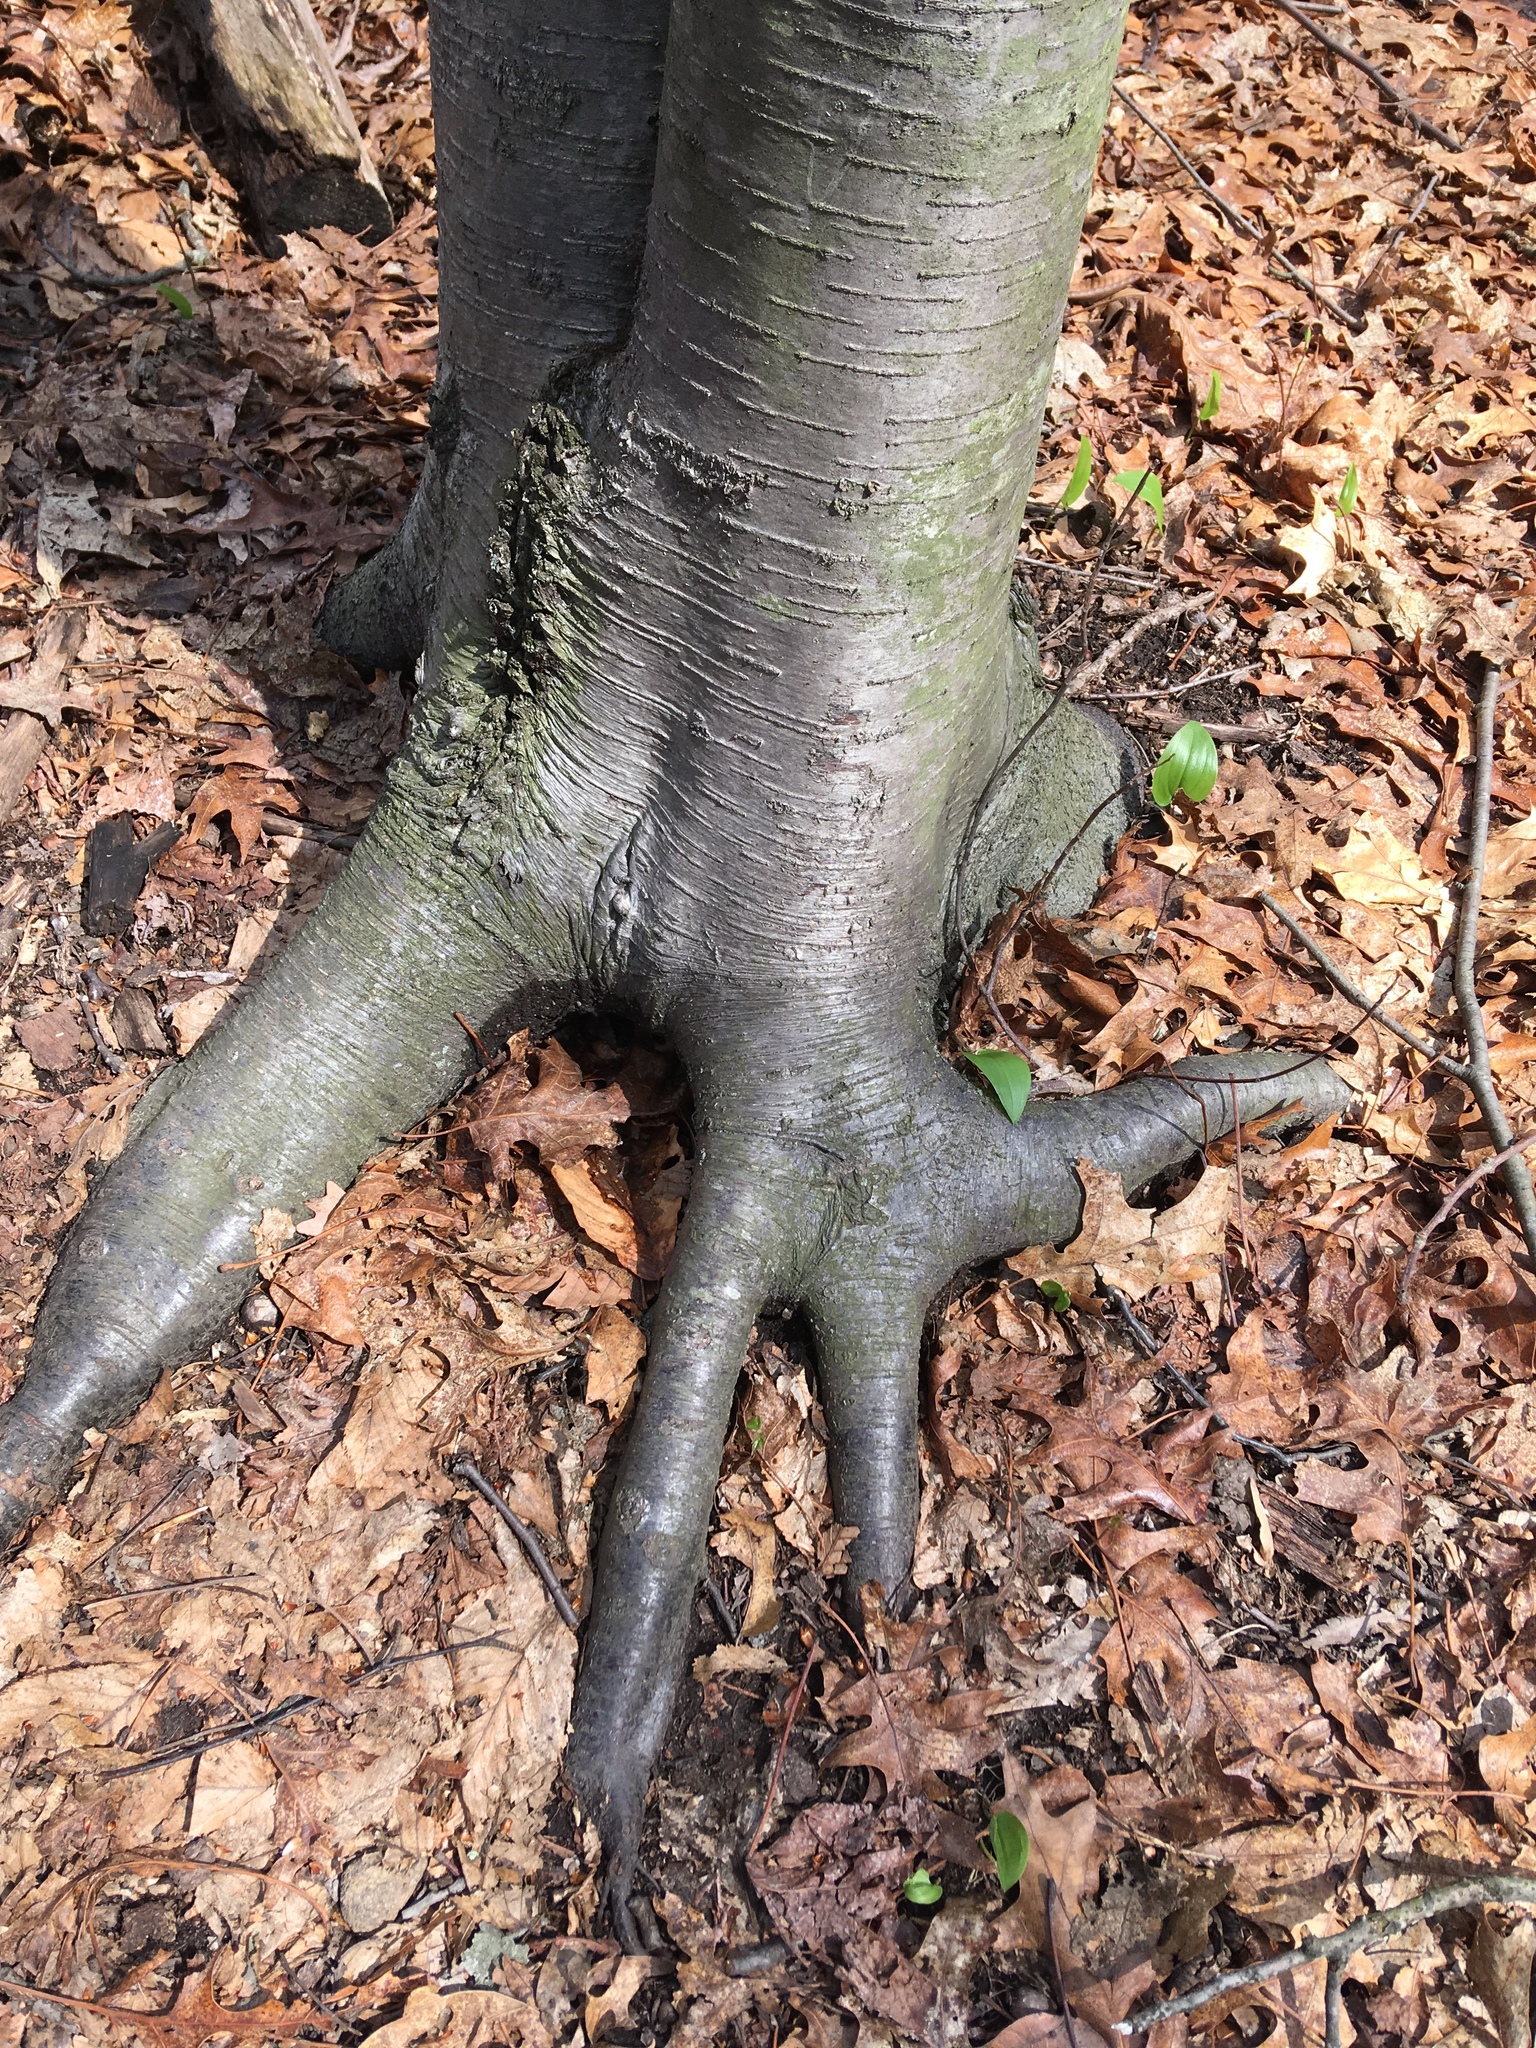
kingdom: Plantae
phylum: Tracheophyta
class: Magnoliopsida
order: Fagales
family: Betulaceae
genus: Betula
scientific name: Betula lenta
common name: Black birch
